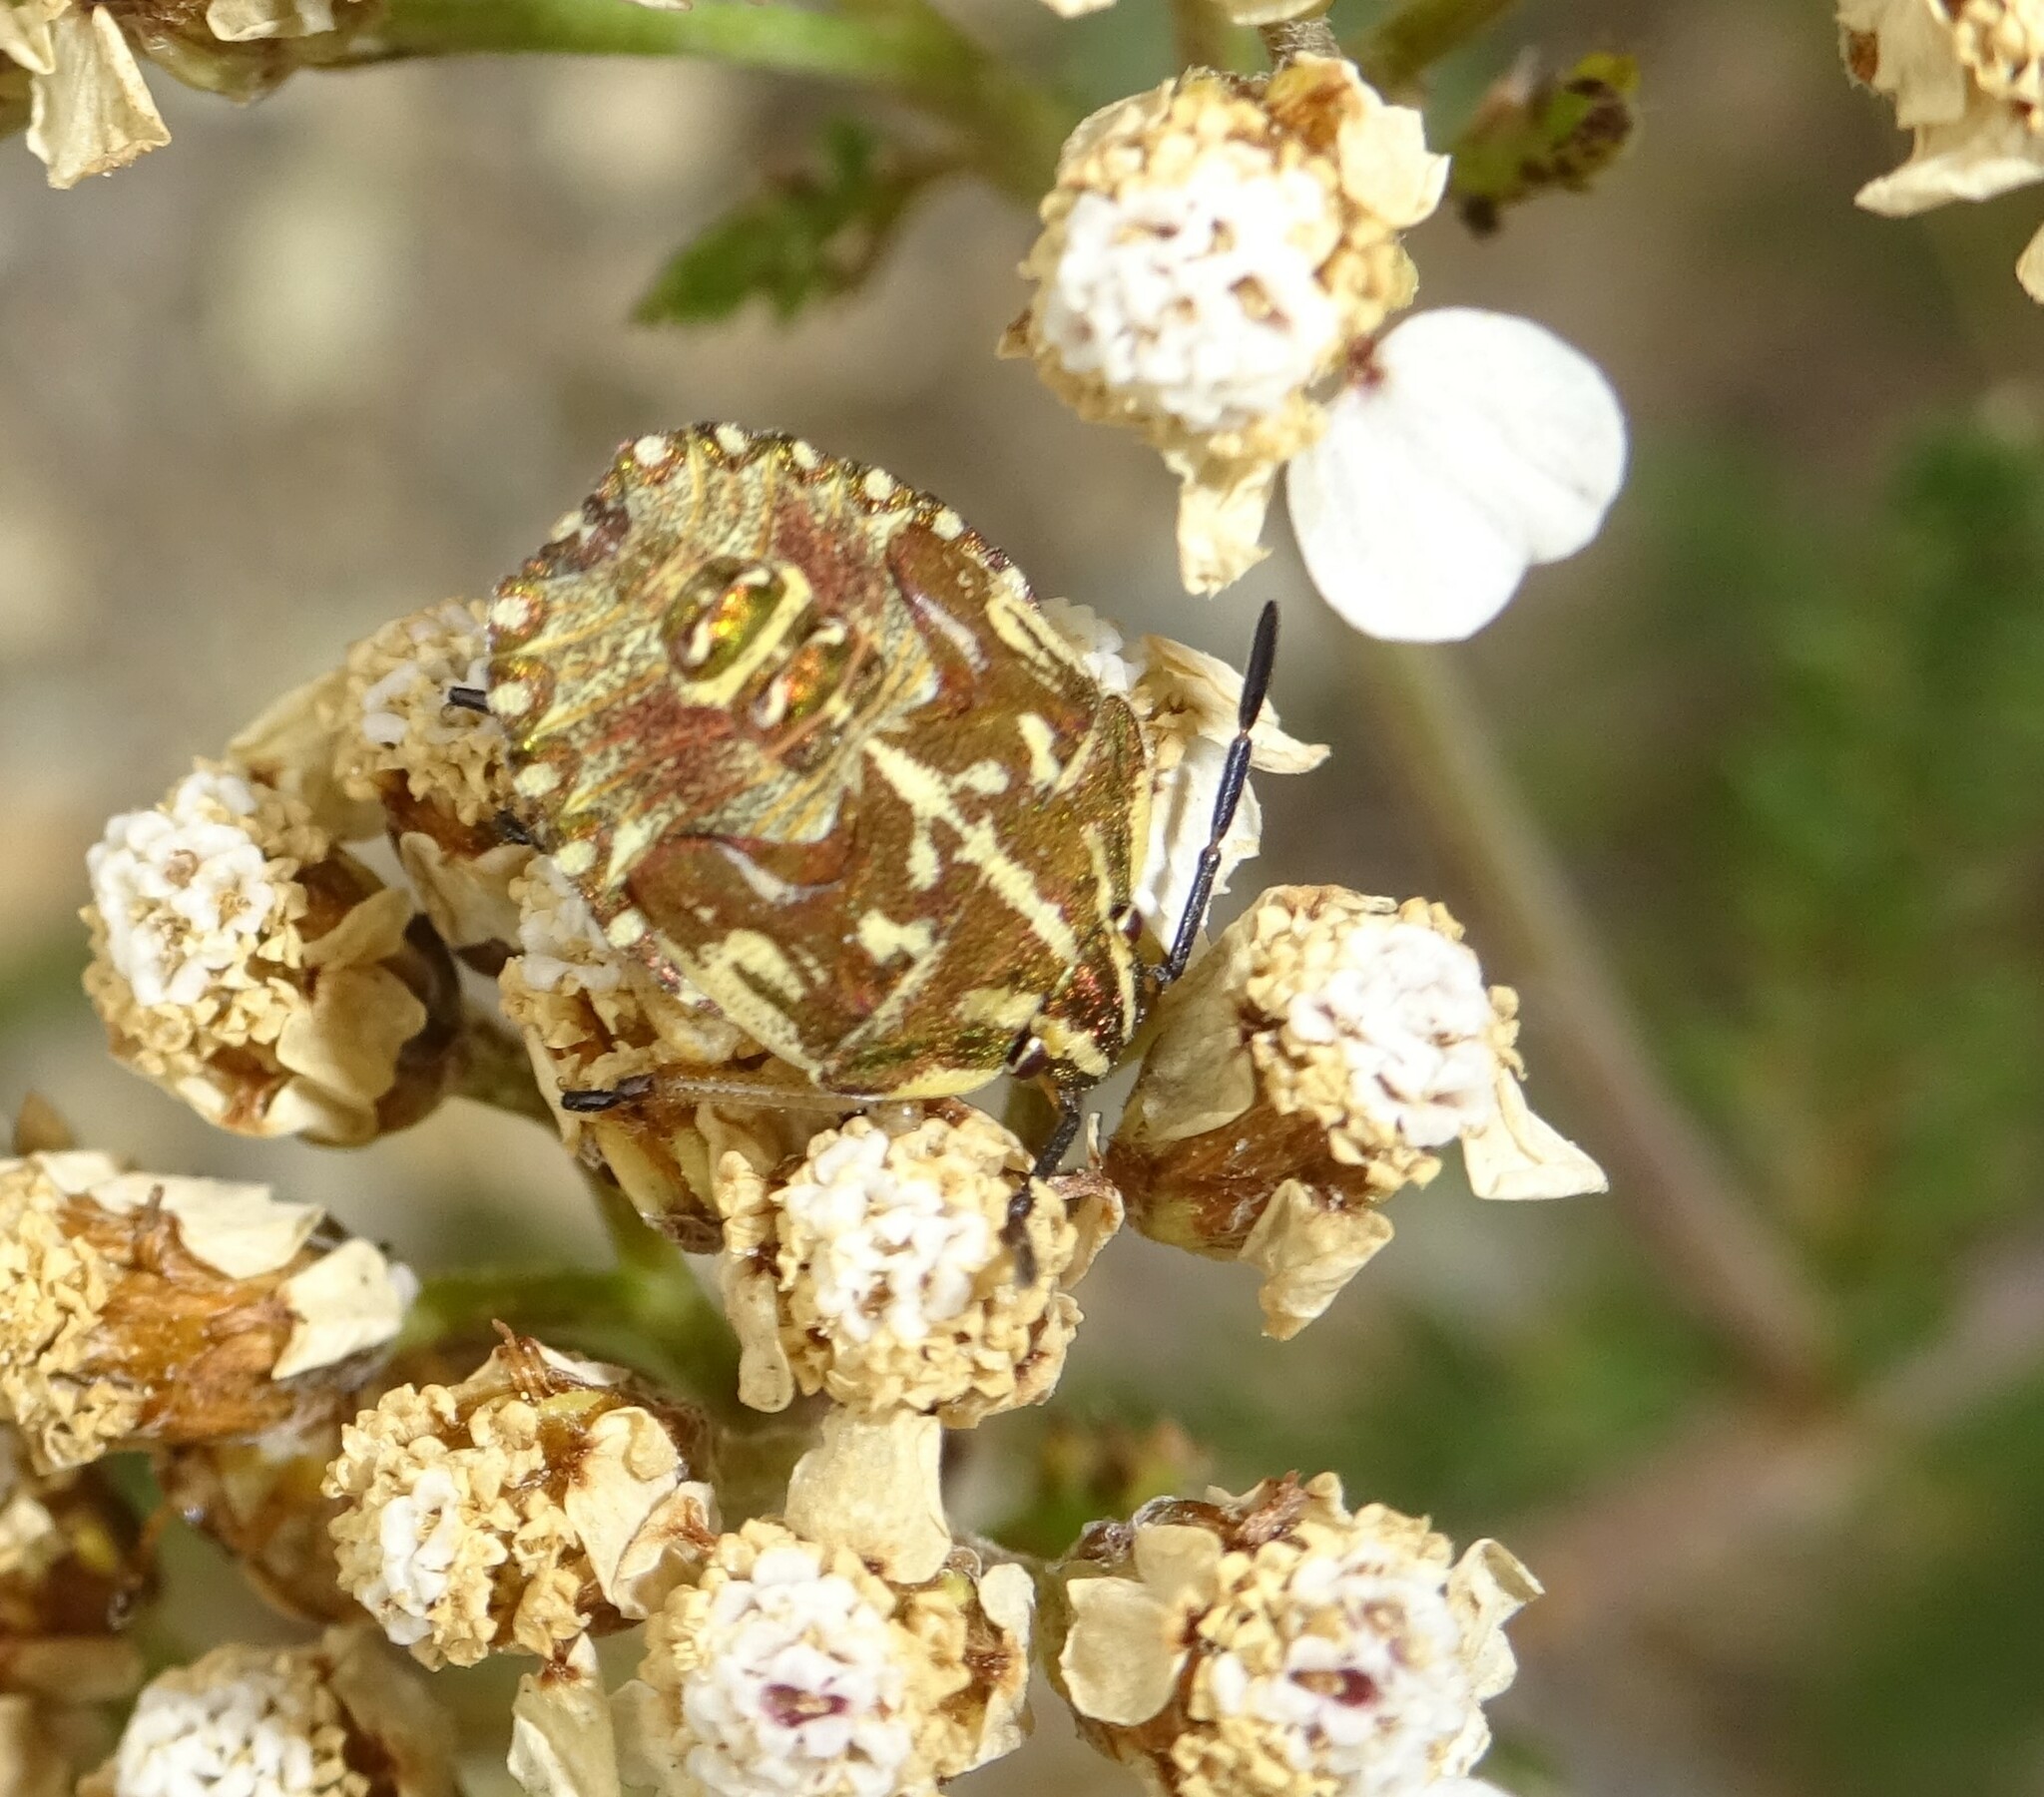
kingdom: Animalia
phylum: Arthropoda
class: Insecta
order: Hemiptera
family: Pentatomidae
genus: Carpocoris
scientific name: Carpocoris purpureipennis
